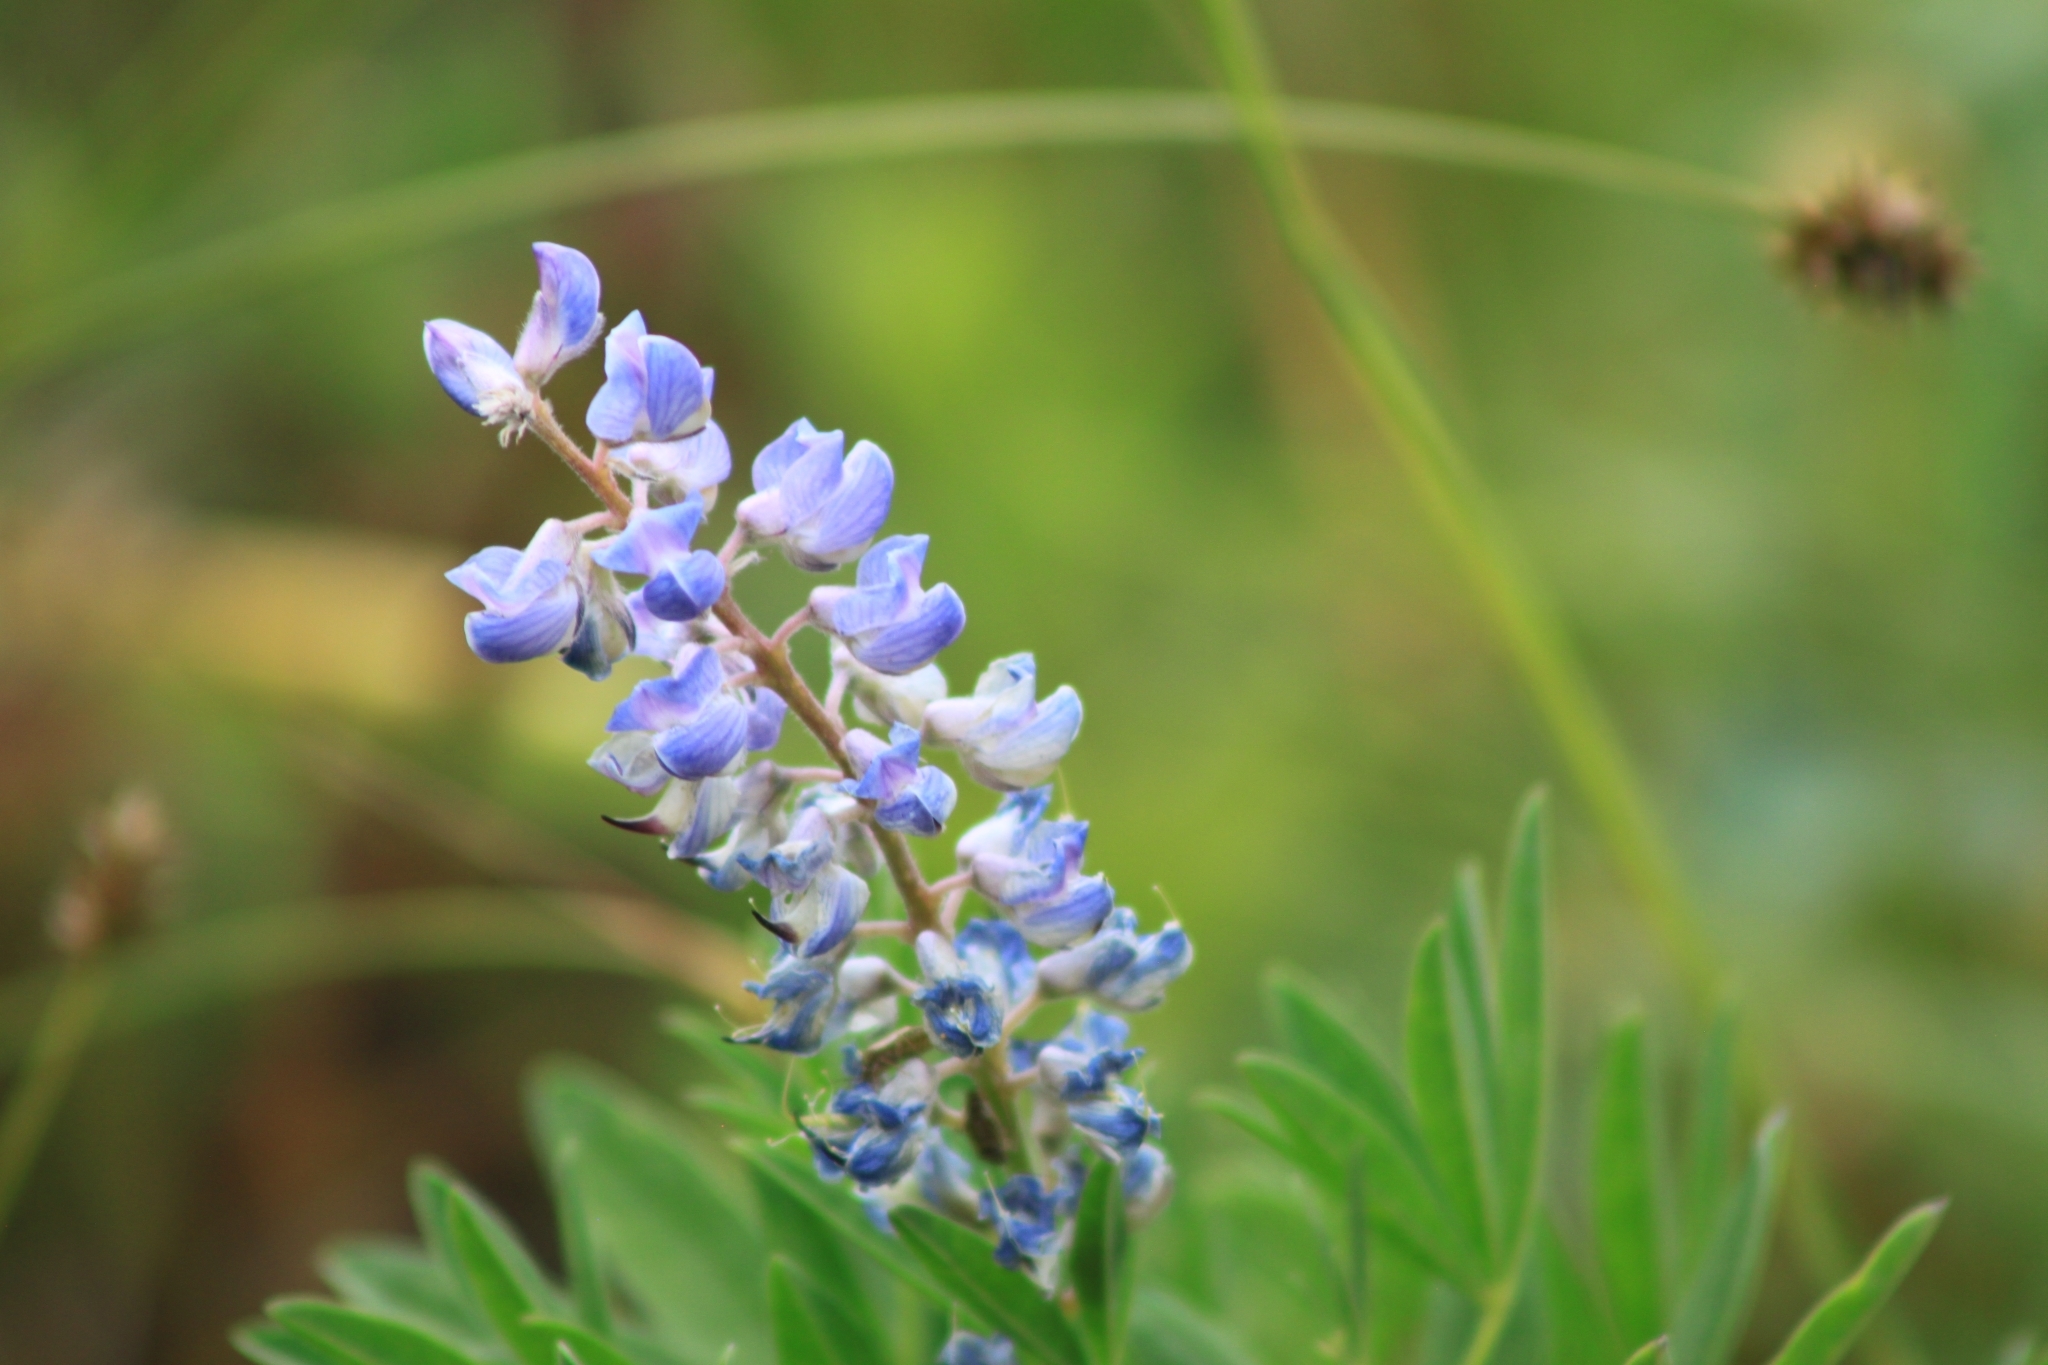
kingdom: Plantae
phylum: Tracheophyta
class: Magnoliopsida
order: Fabales
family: Fabaceae
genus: Lupinus
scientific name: Lupinus argenteus
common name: Silvery lupine
